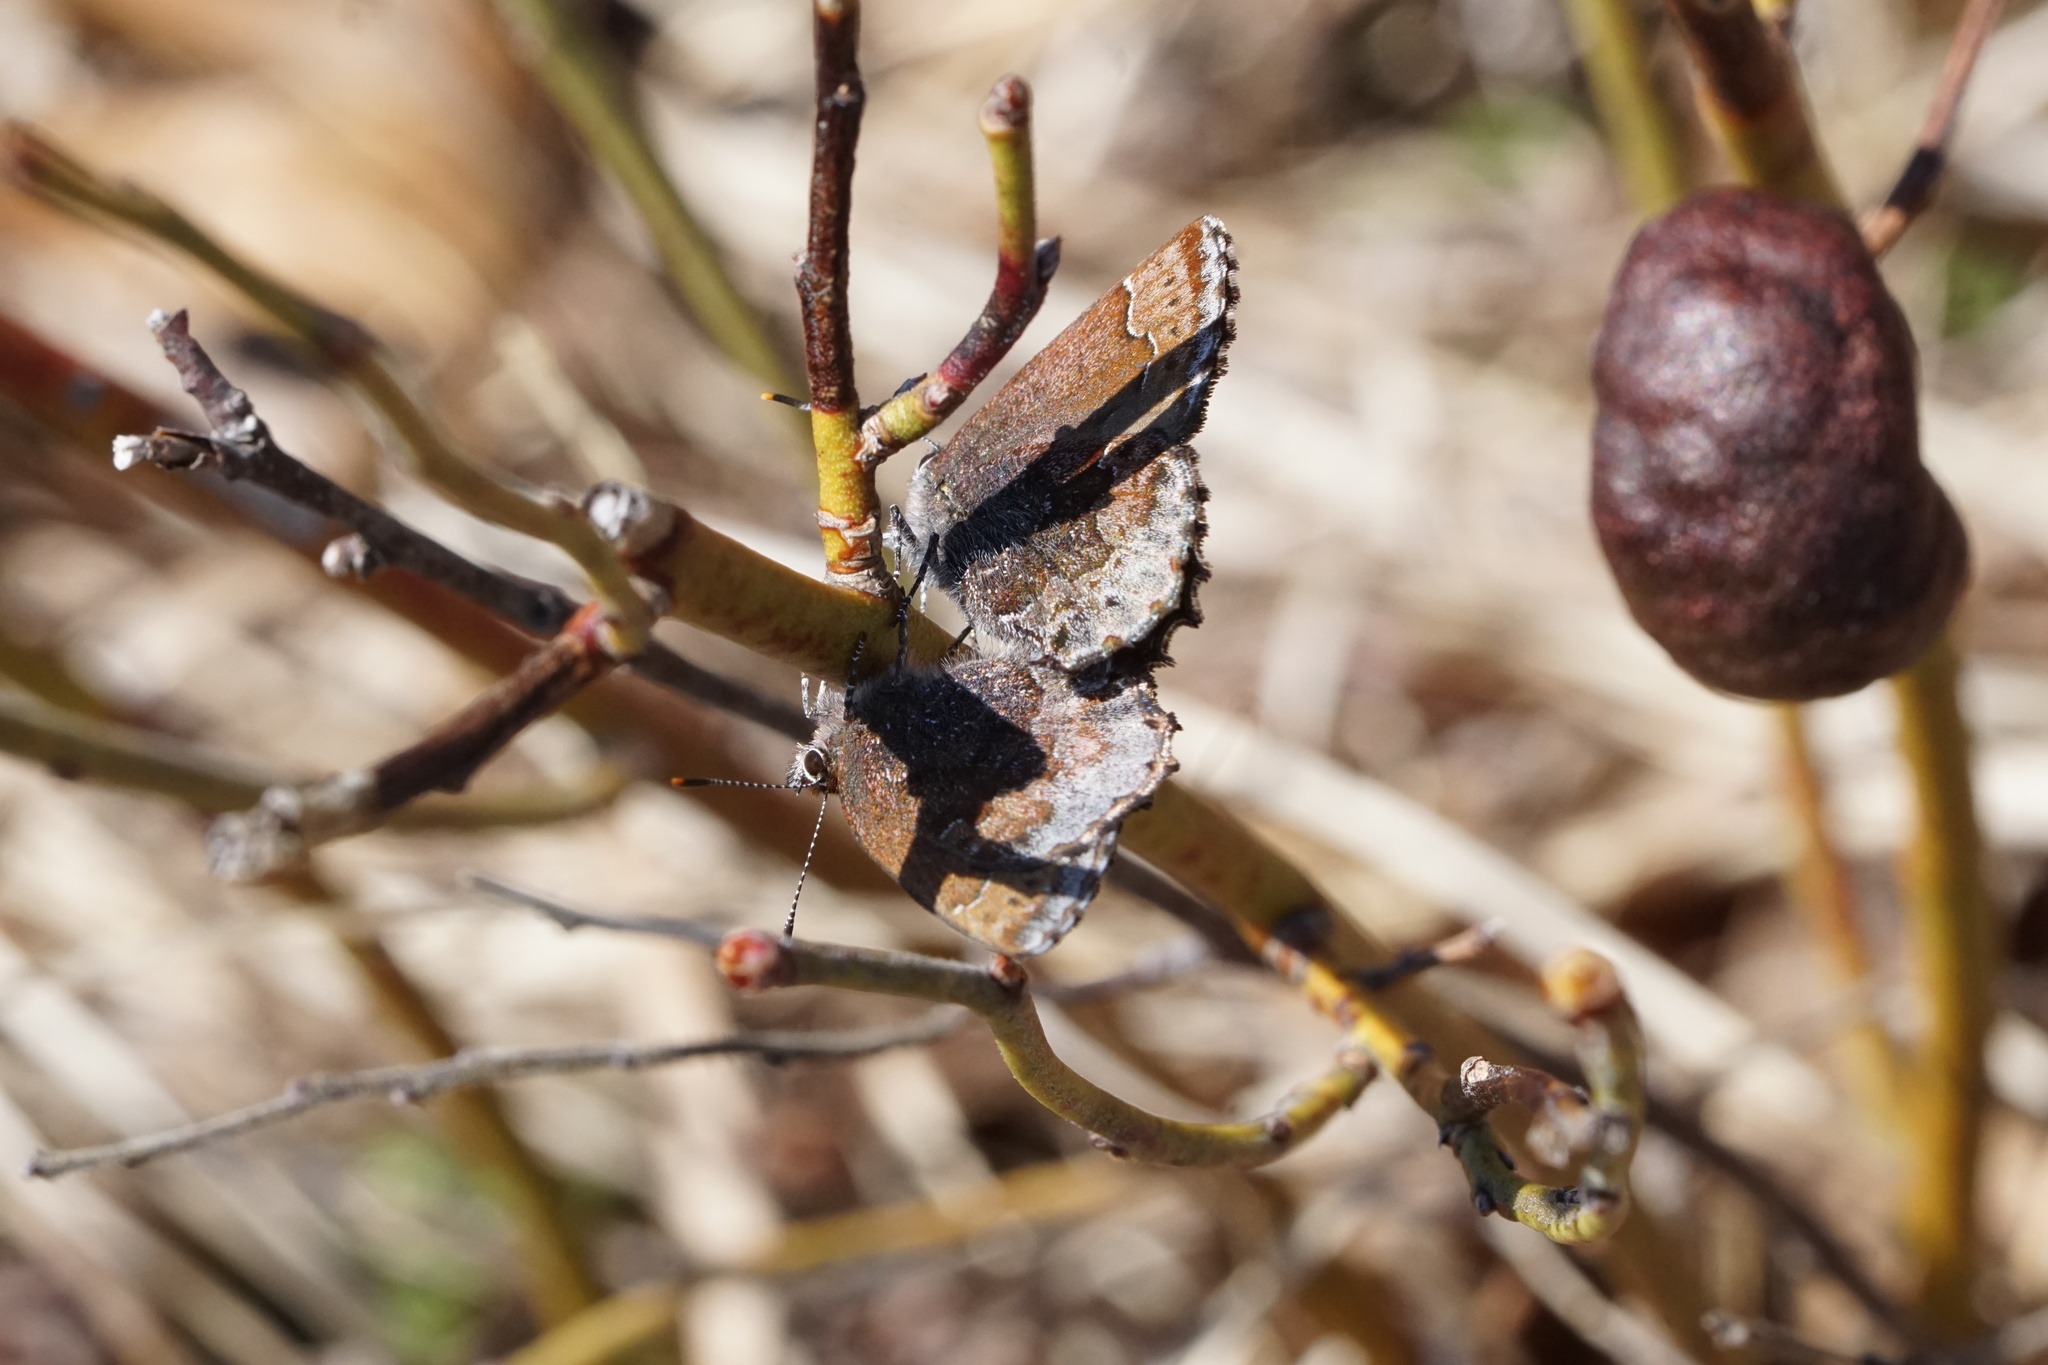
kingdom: Animalia
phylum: Arthropoda
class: Insecta
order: Lepidoptera
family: Lycaenidae
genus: Callophrys
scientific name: Callophrys polios
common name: Hoary elfin
